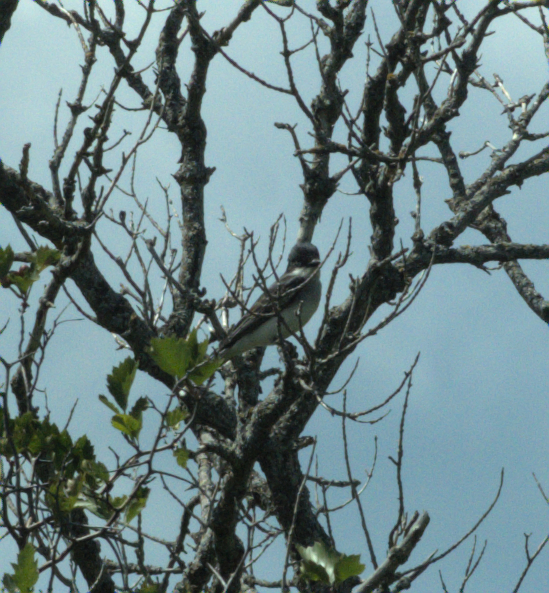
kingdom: Animalia
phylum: Chordata
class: Aves
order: Passeriformes
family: Tyrannidae
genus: Tyrannus
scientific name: Tyrannus tyrannus
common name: Eastern kingbird
